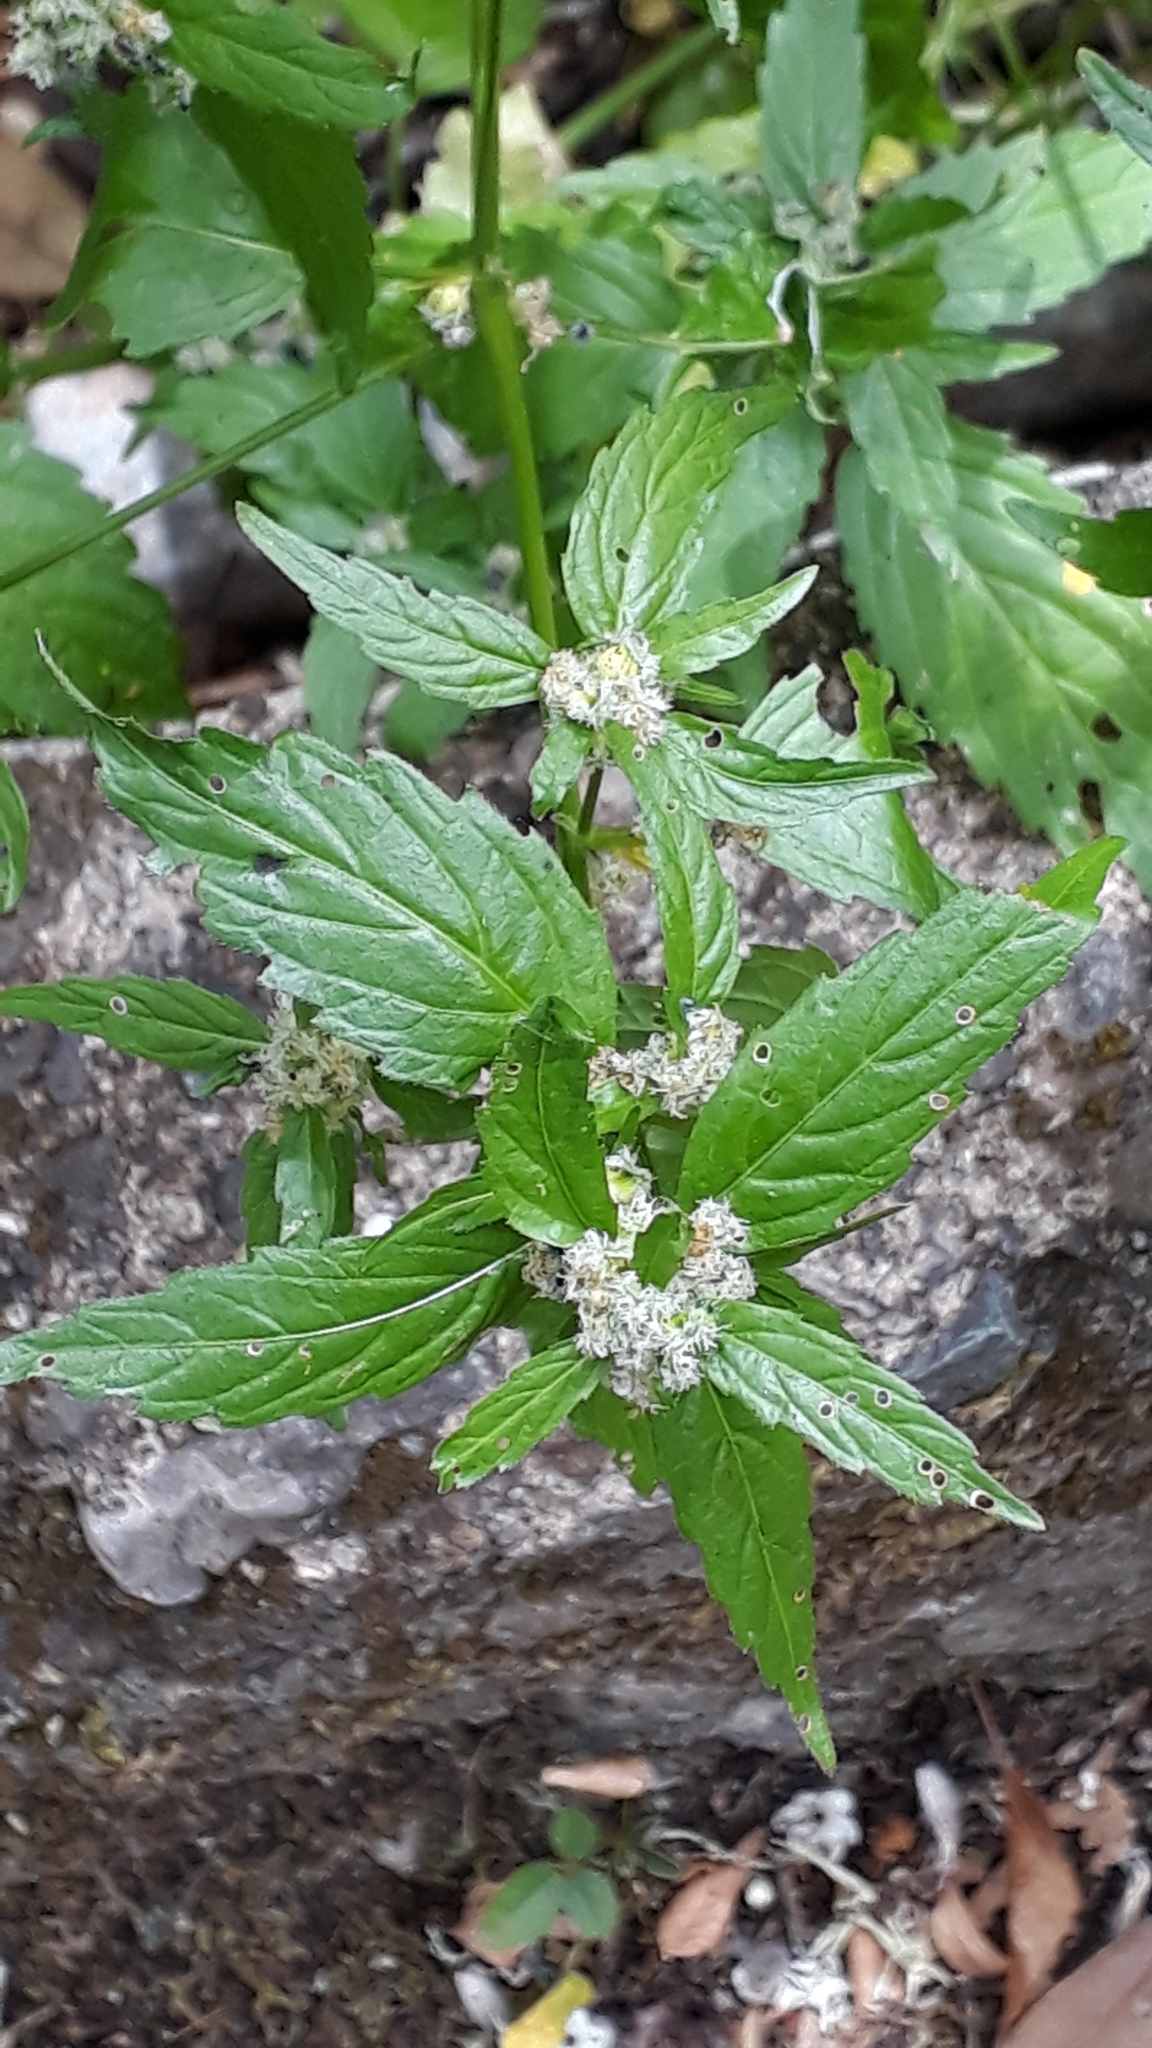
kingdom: Plantae
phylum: Tracheophyta
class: Magnoliopsida
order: Malpighiales
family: Euphorbiaceae
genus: Mercurialis
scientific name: Mercurialis canariensis
